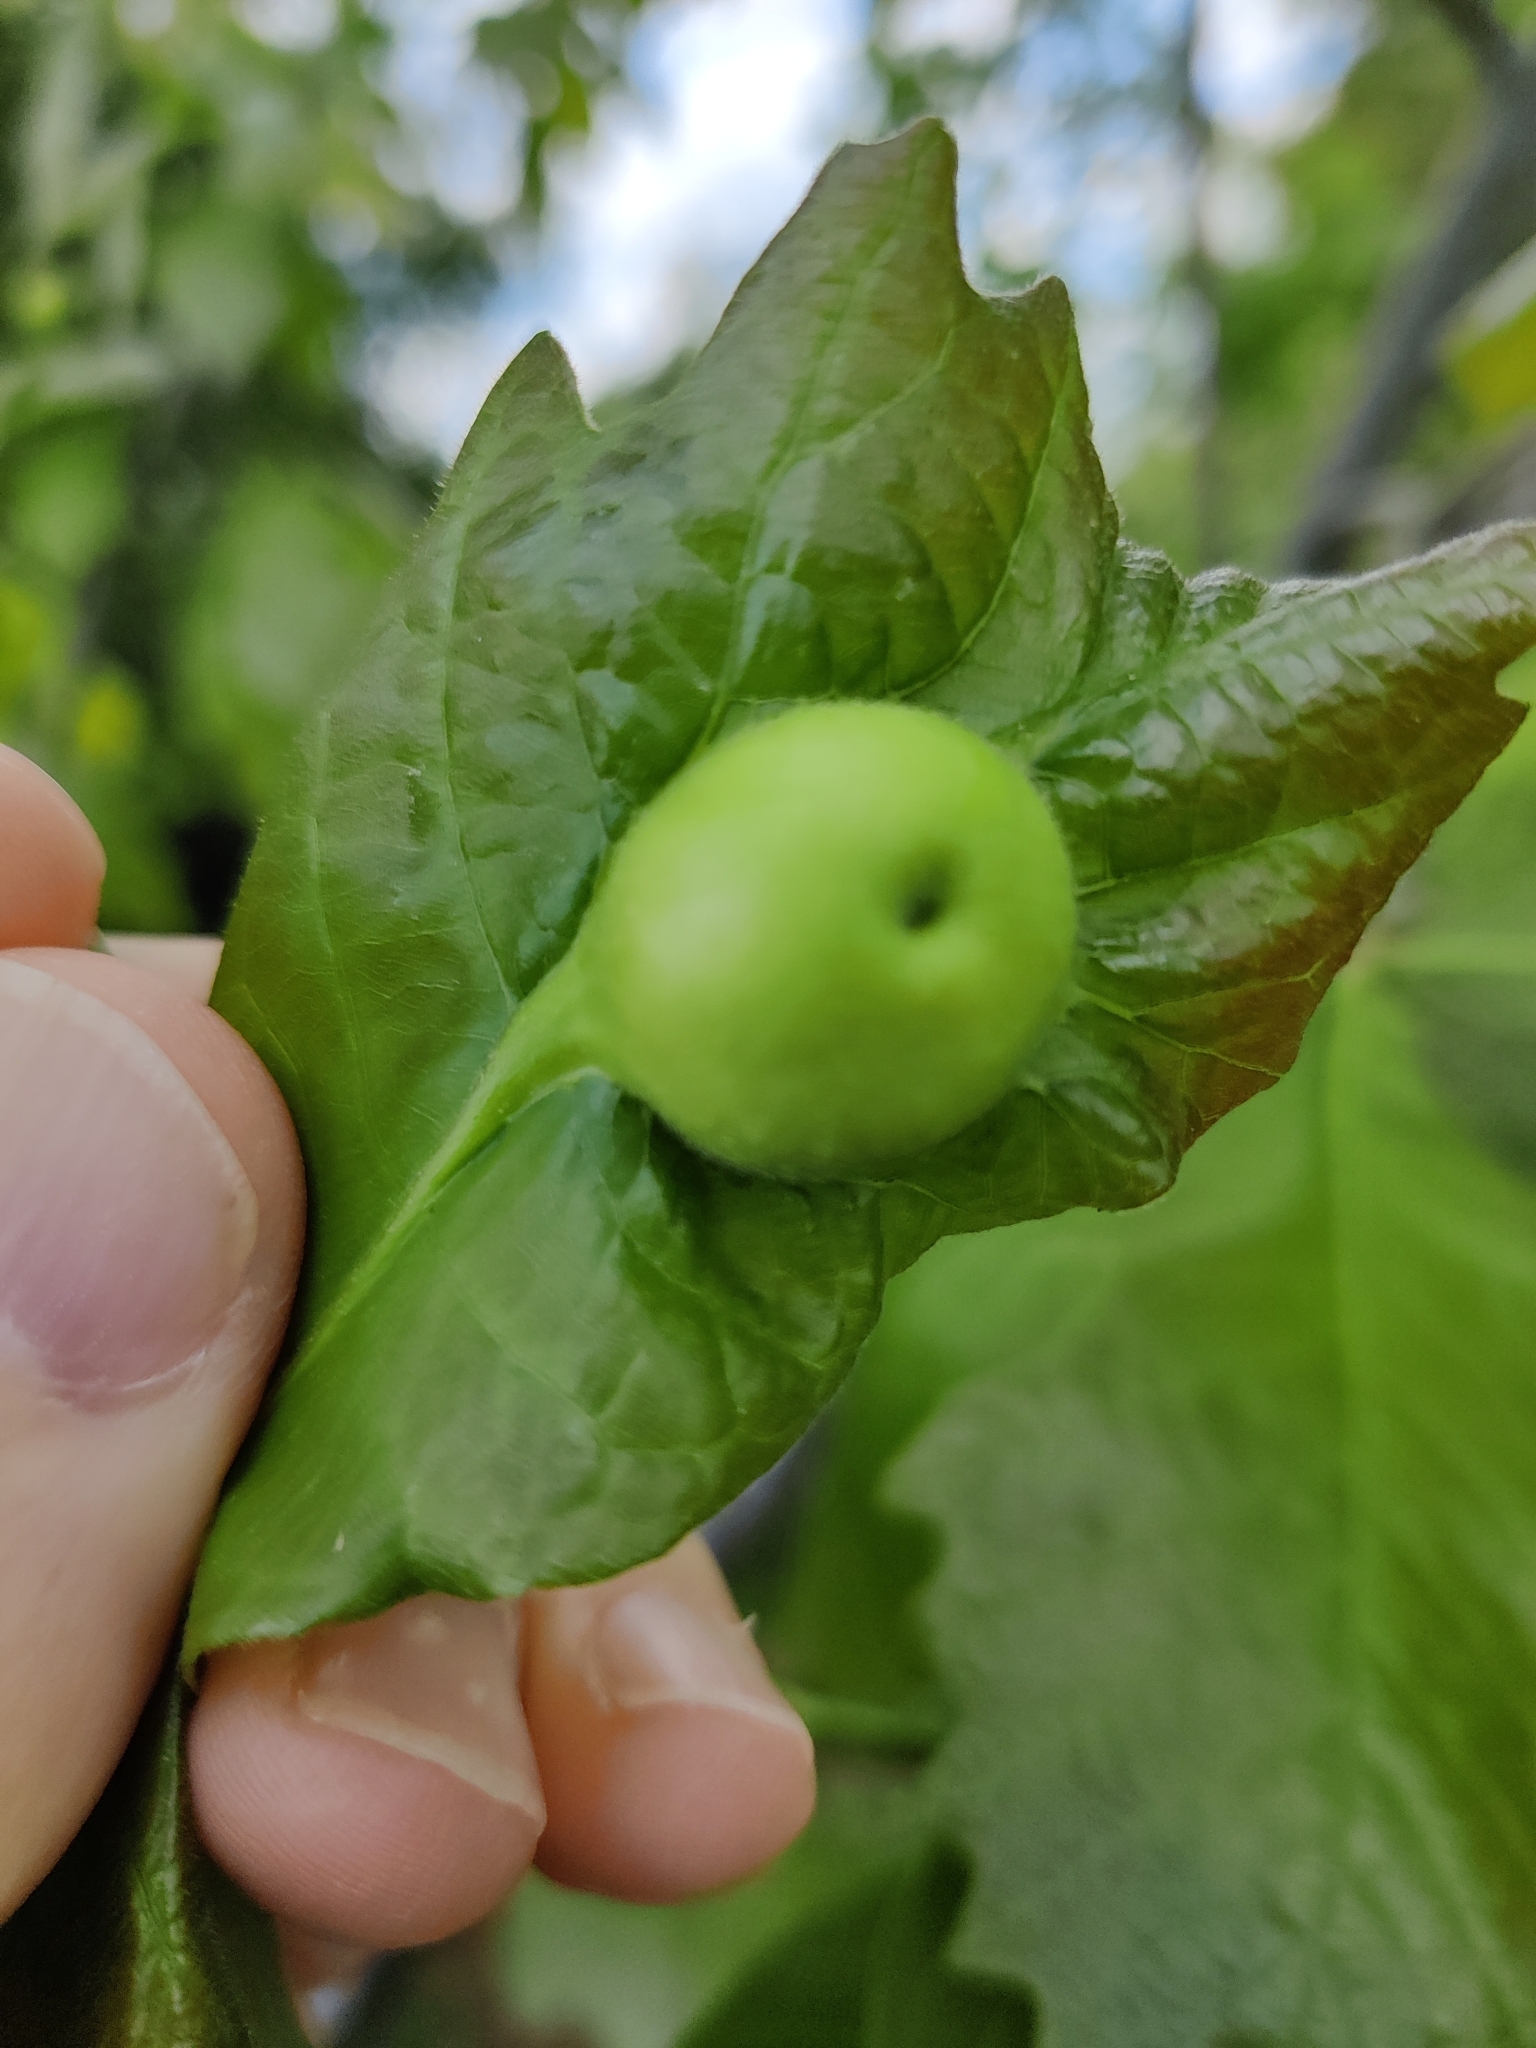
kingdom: Animalia
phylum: Arthropoda
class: Insecta
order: Hymenoptera
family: Cynipidae
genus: Andricus
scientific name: Andricus
